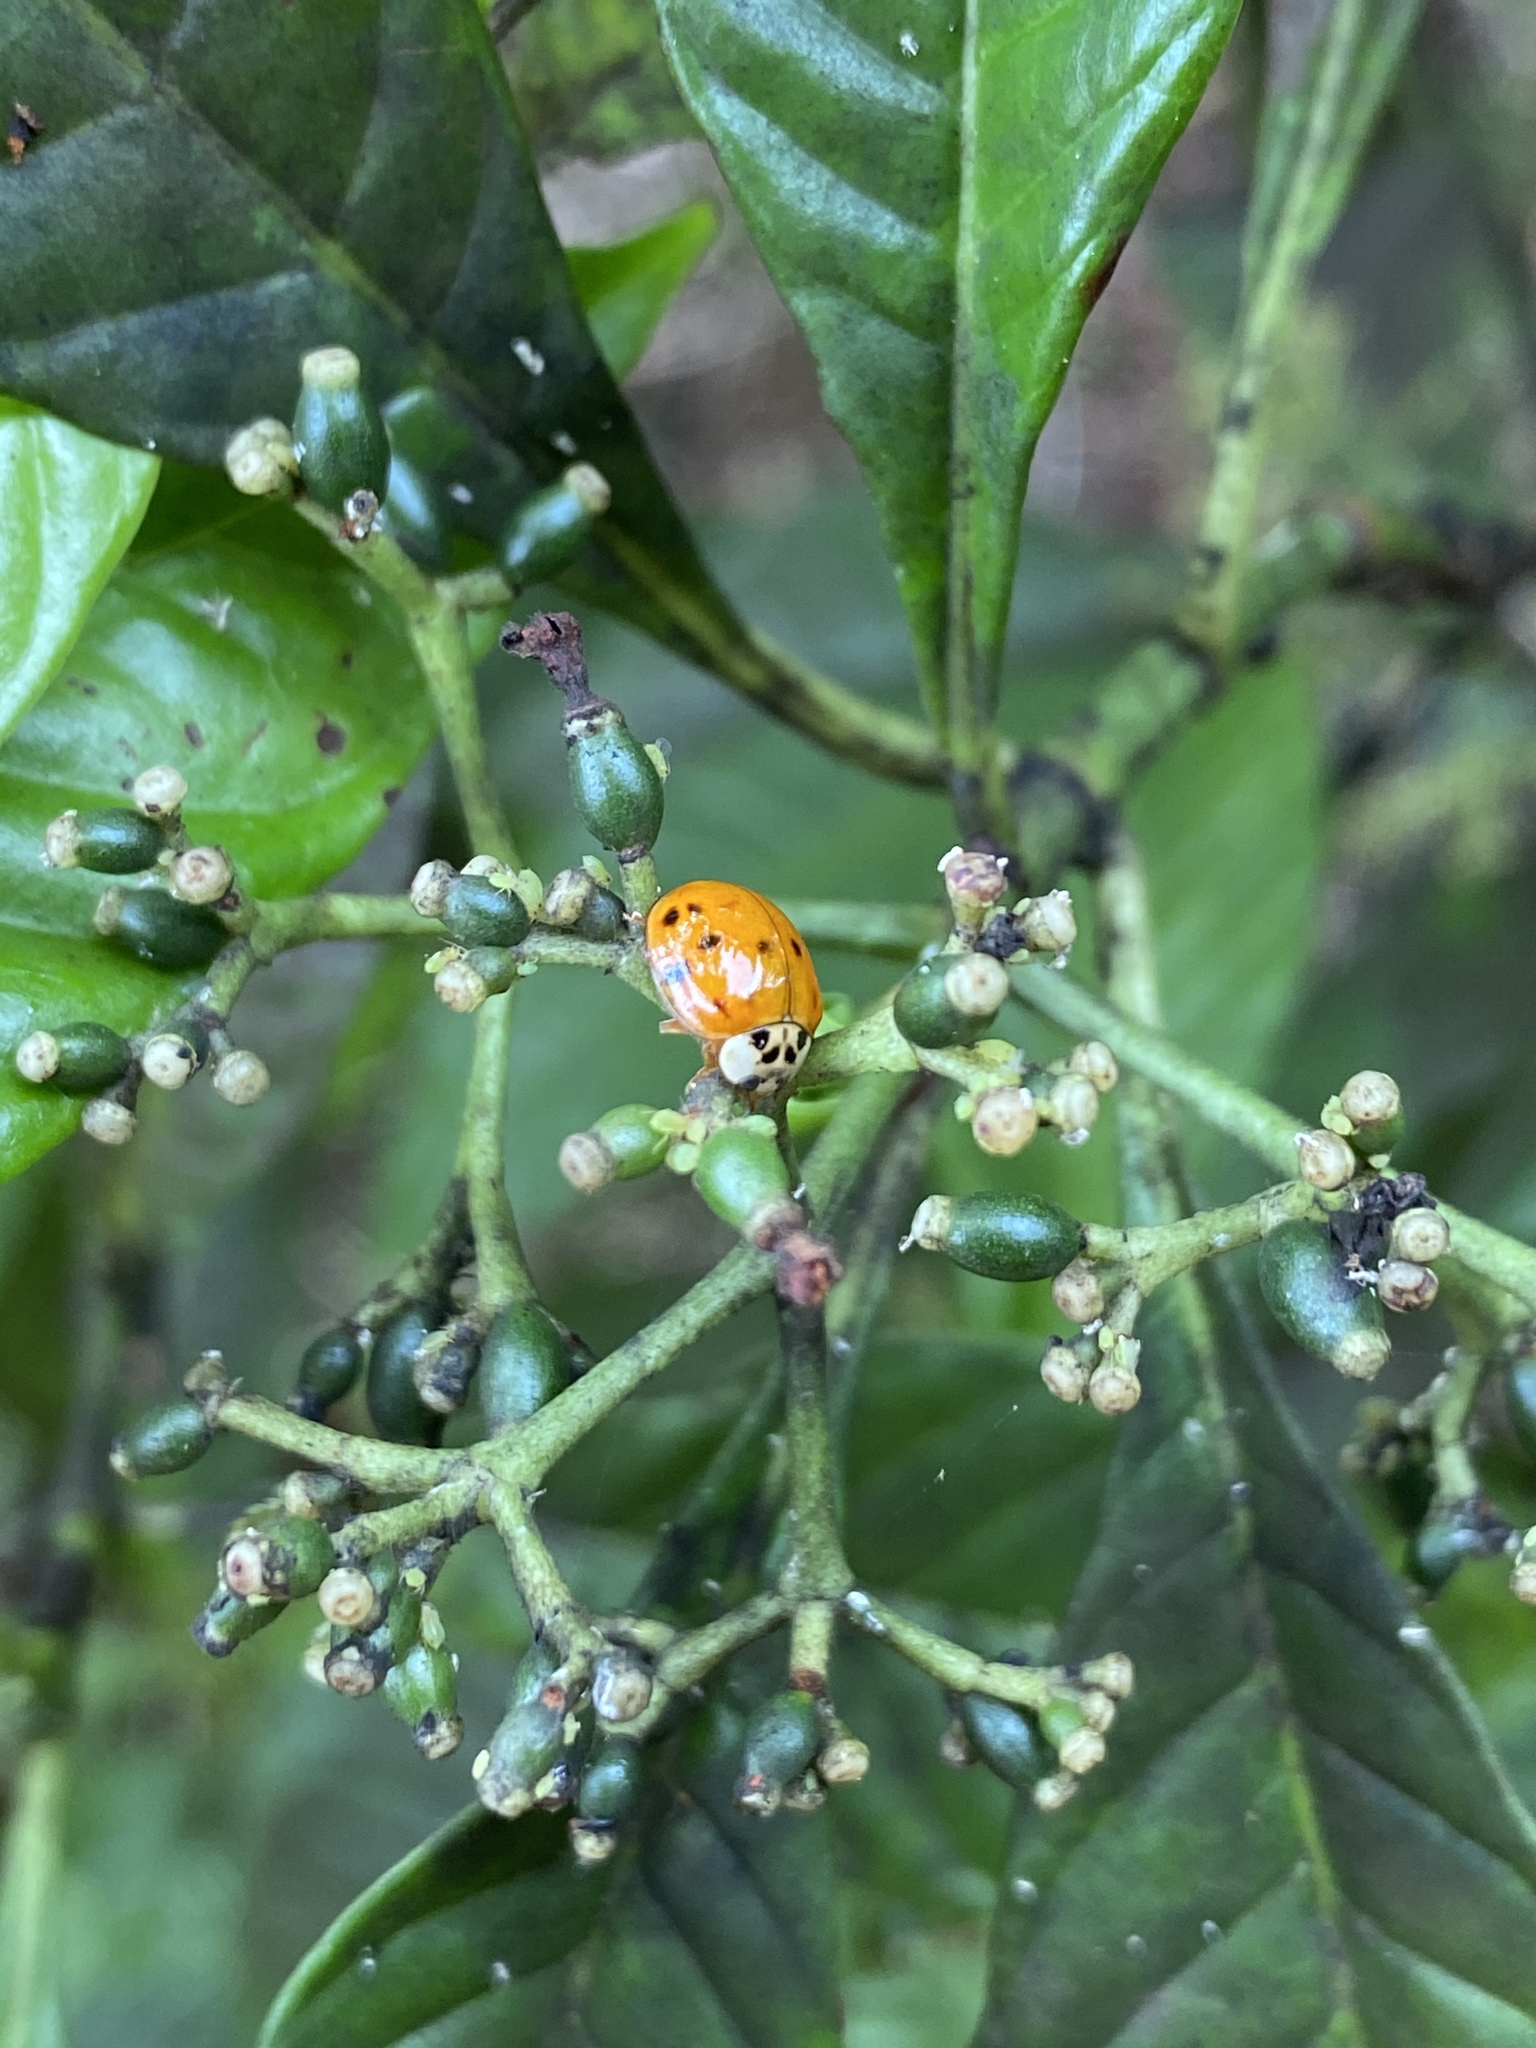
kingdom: Animalia
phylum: Arthropoda
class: Insecta
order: Coleoptera
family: Coccinellidae
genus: Harmonia
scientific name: Harmonia axyridis
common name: Harlequin ladybird
